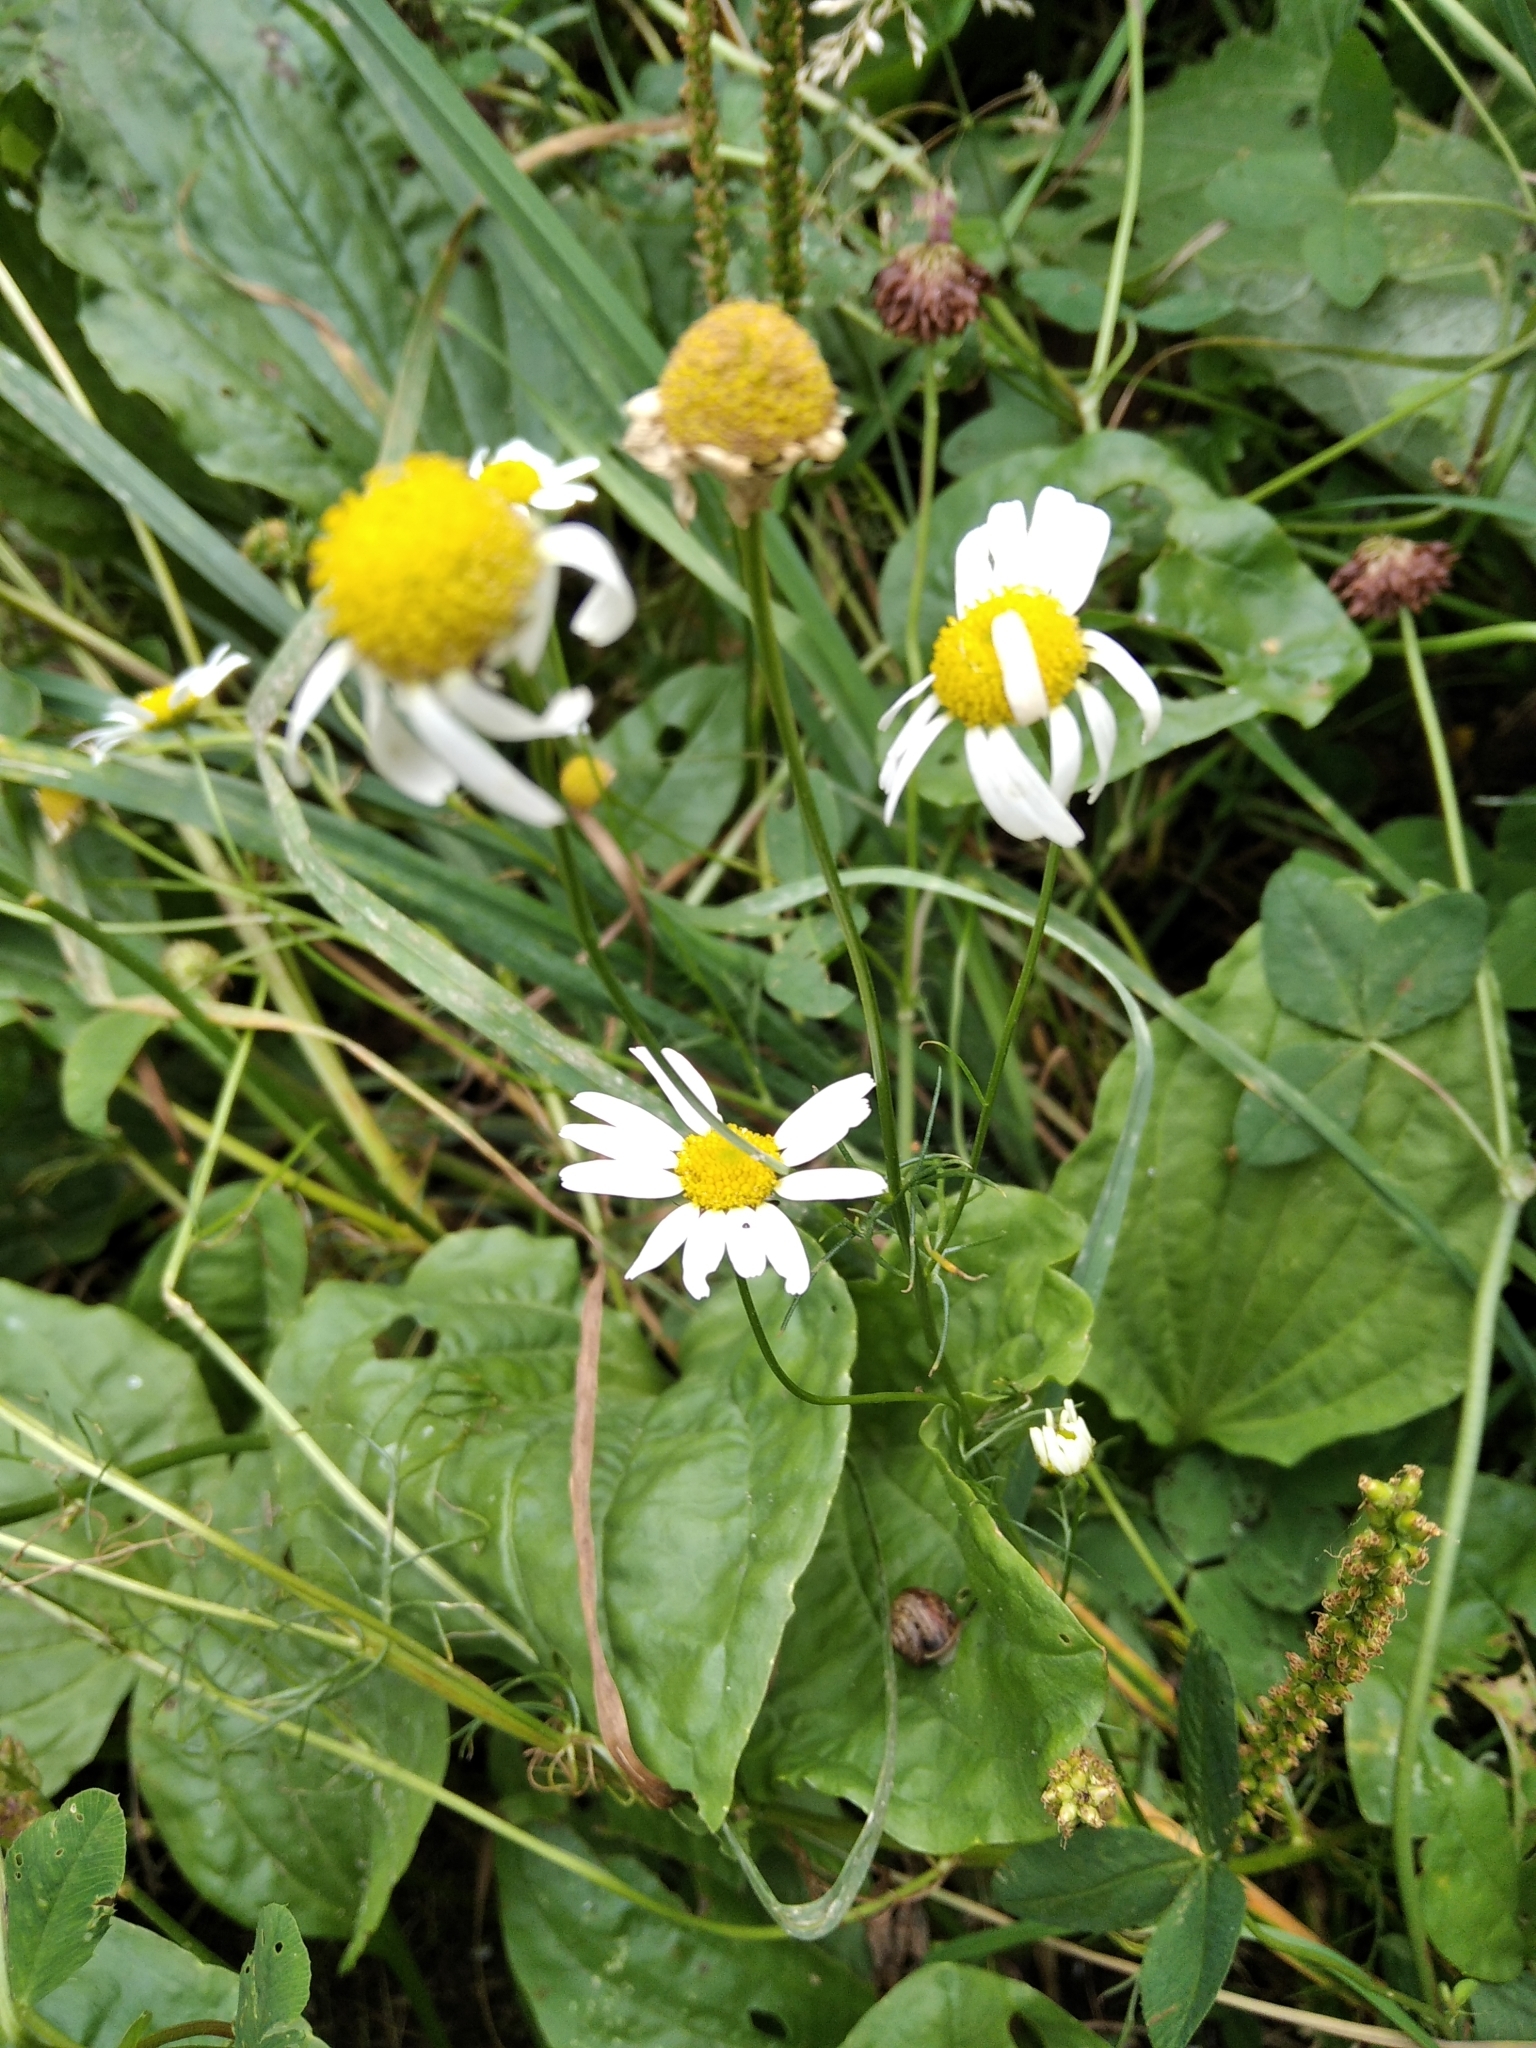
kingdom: Plantae
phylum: Tracheophyta
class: Magnoliopsida
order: Asterales
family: Asteraceae
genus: Tripleurospermum
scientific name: Tripleurospermum inodorum
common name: Scentless mayweed
